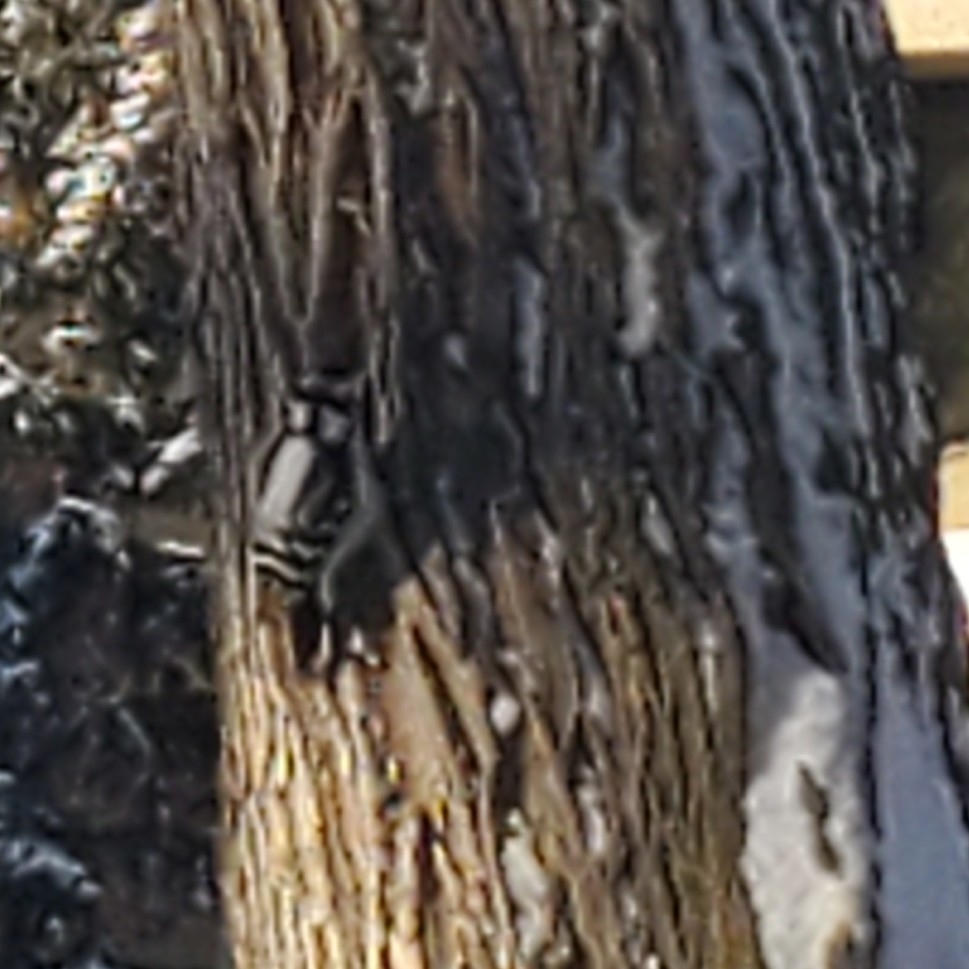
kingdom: Animalia
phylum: Chordata
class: Aves
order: Piciformes
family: Picidae
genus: Dryobates
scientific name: Dryobates pubescens
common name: Downy woodpecker
